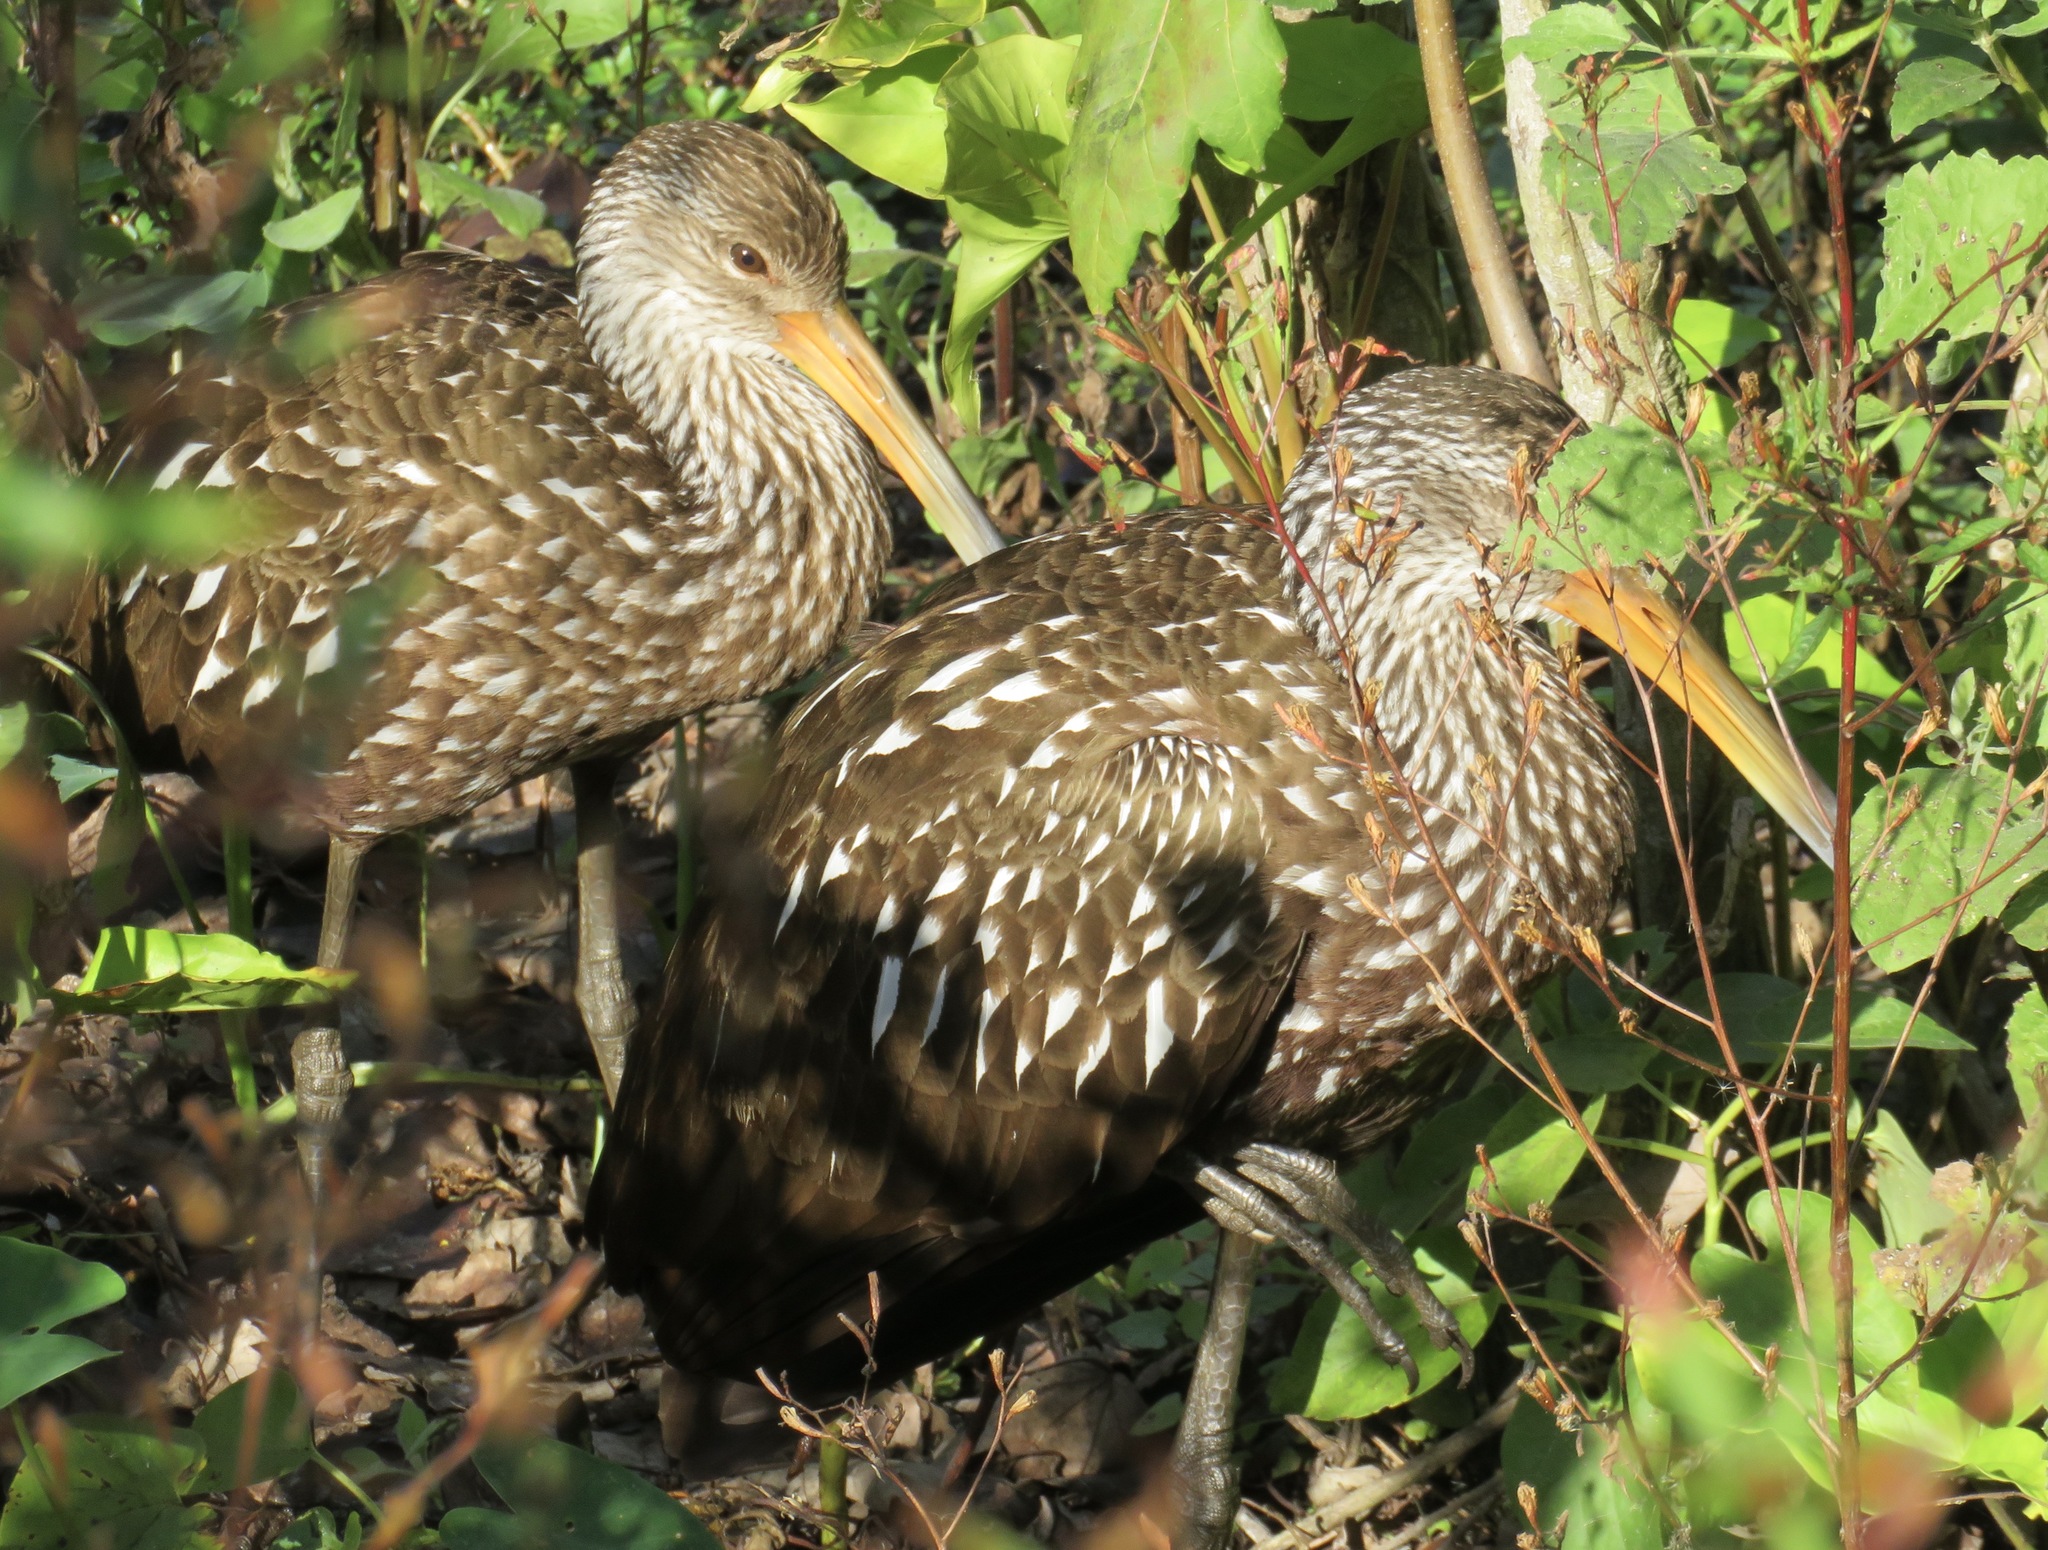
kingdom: Animalia
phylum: Chordata
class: Aves
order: Gruiformes
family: Aramidae
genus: Aramus
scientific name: Aramus guarauna
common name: Limpkin
